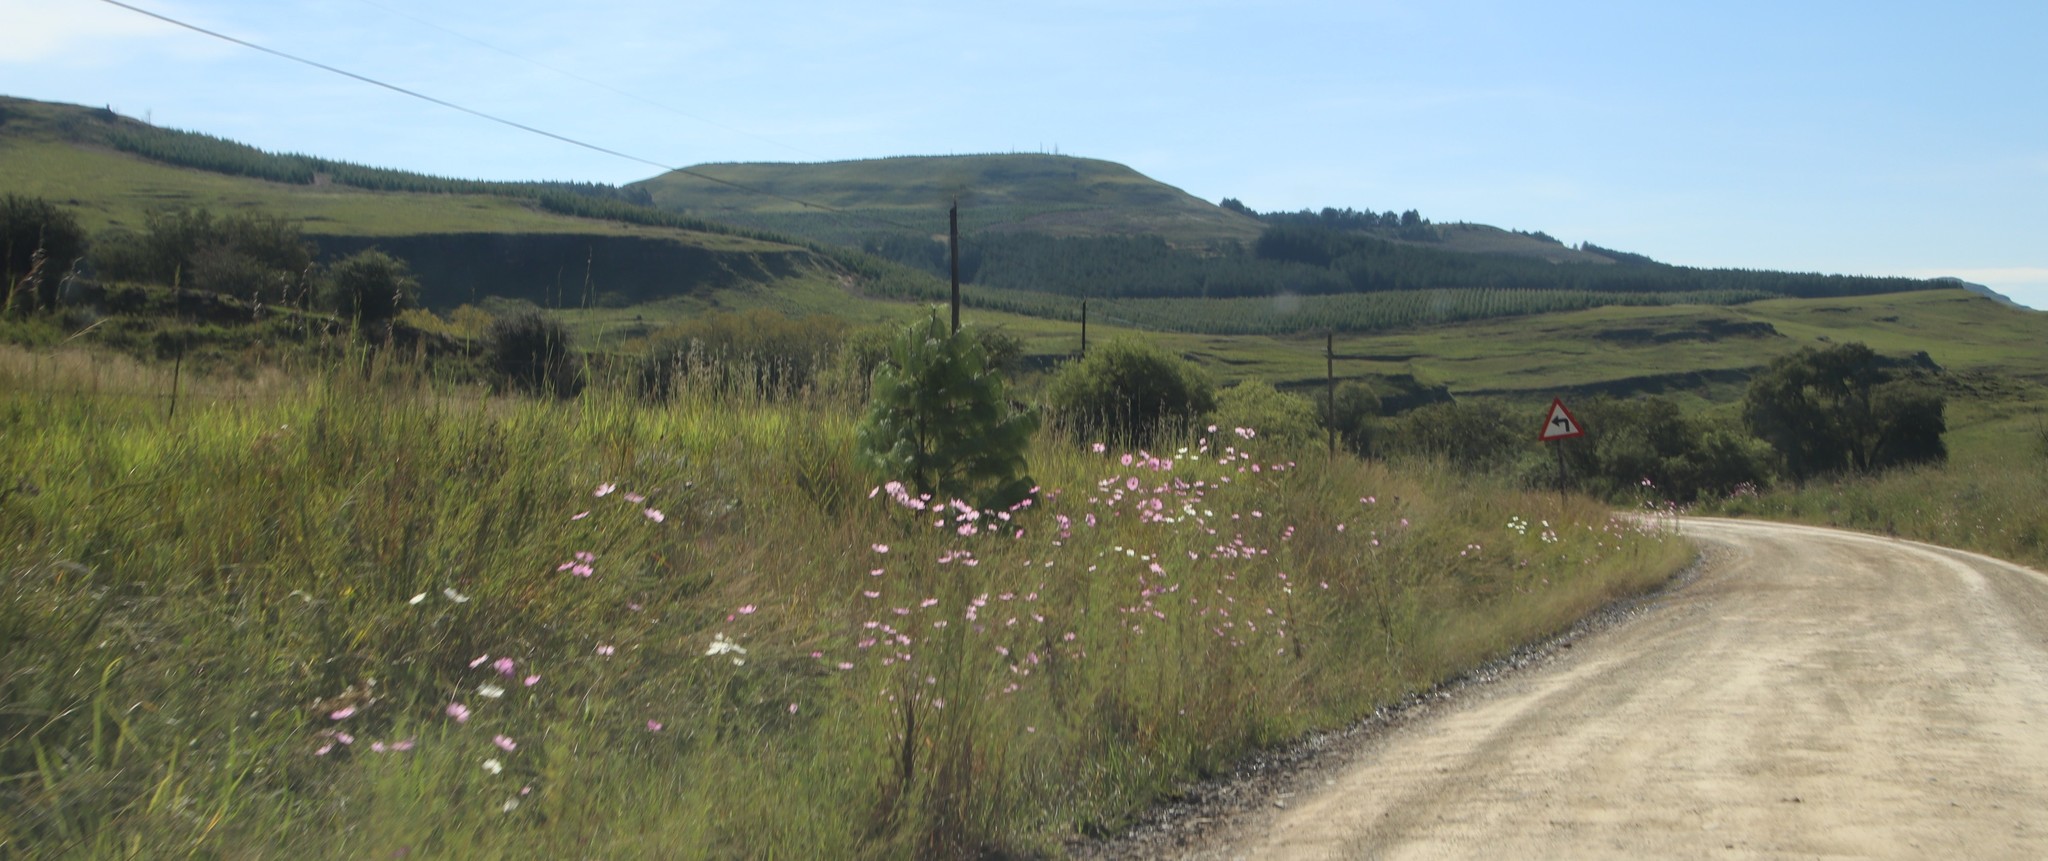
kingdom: Plantae
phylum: Tracheophyta
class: Magnoliopsida
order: Asterales
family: Asteraceae
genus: Cosmos
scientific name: Cosmos bipinnatus
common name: Garden cosmos
